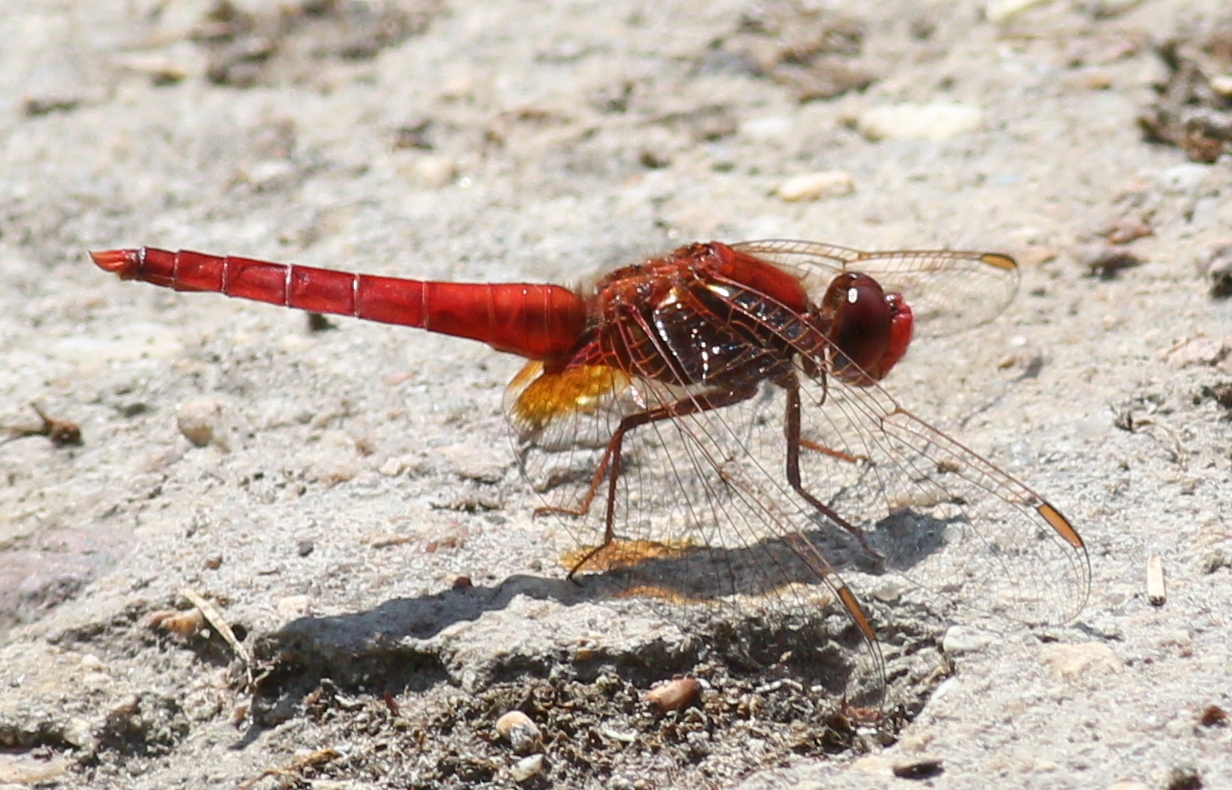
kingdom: Animalia
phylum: Arthropoda
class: Insecta
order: Odonata
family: Libellulidae
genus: Crocothemis
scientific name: Crocothemis erythraea
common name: Scarlet dragonfly
